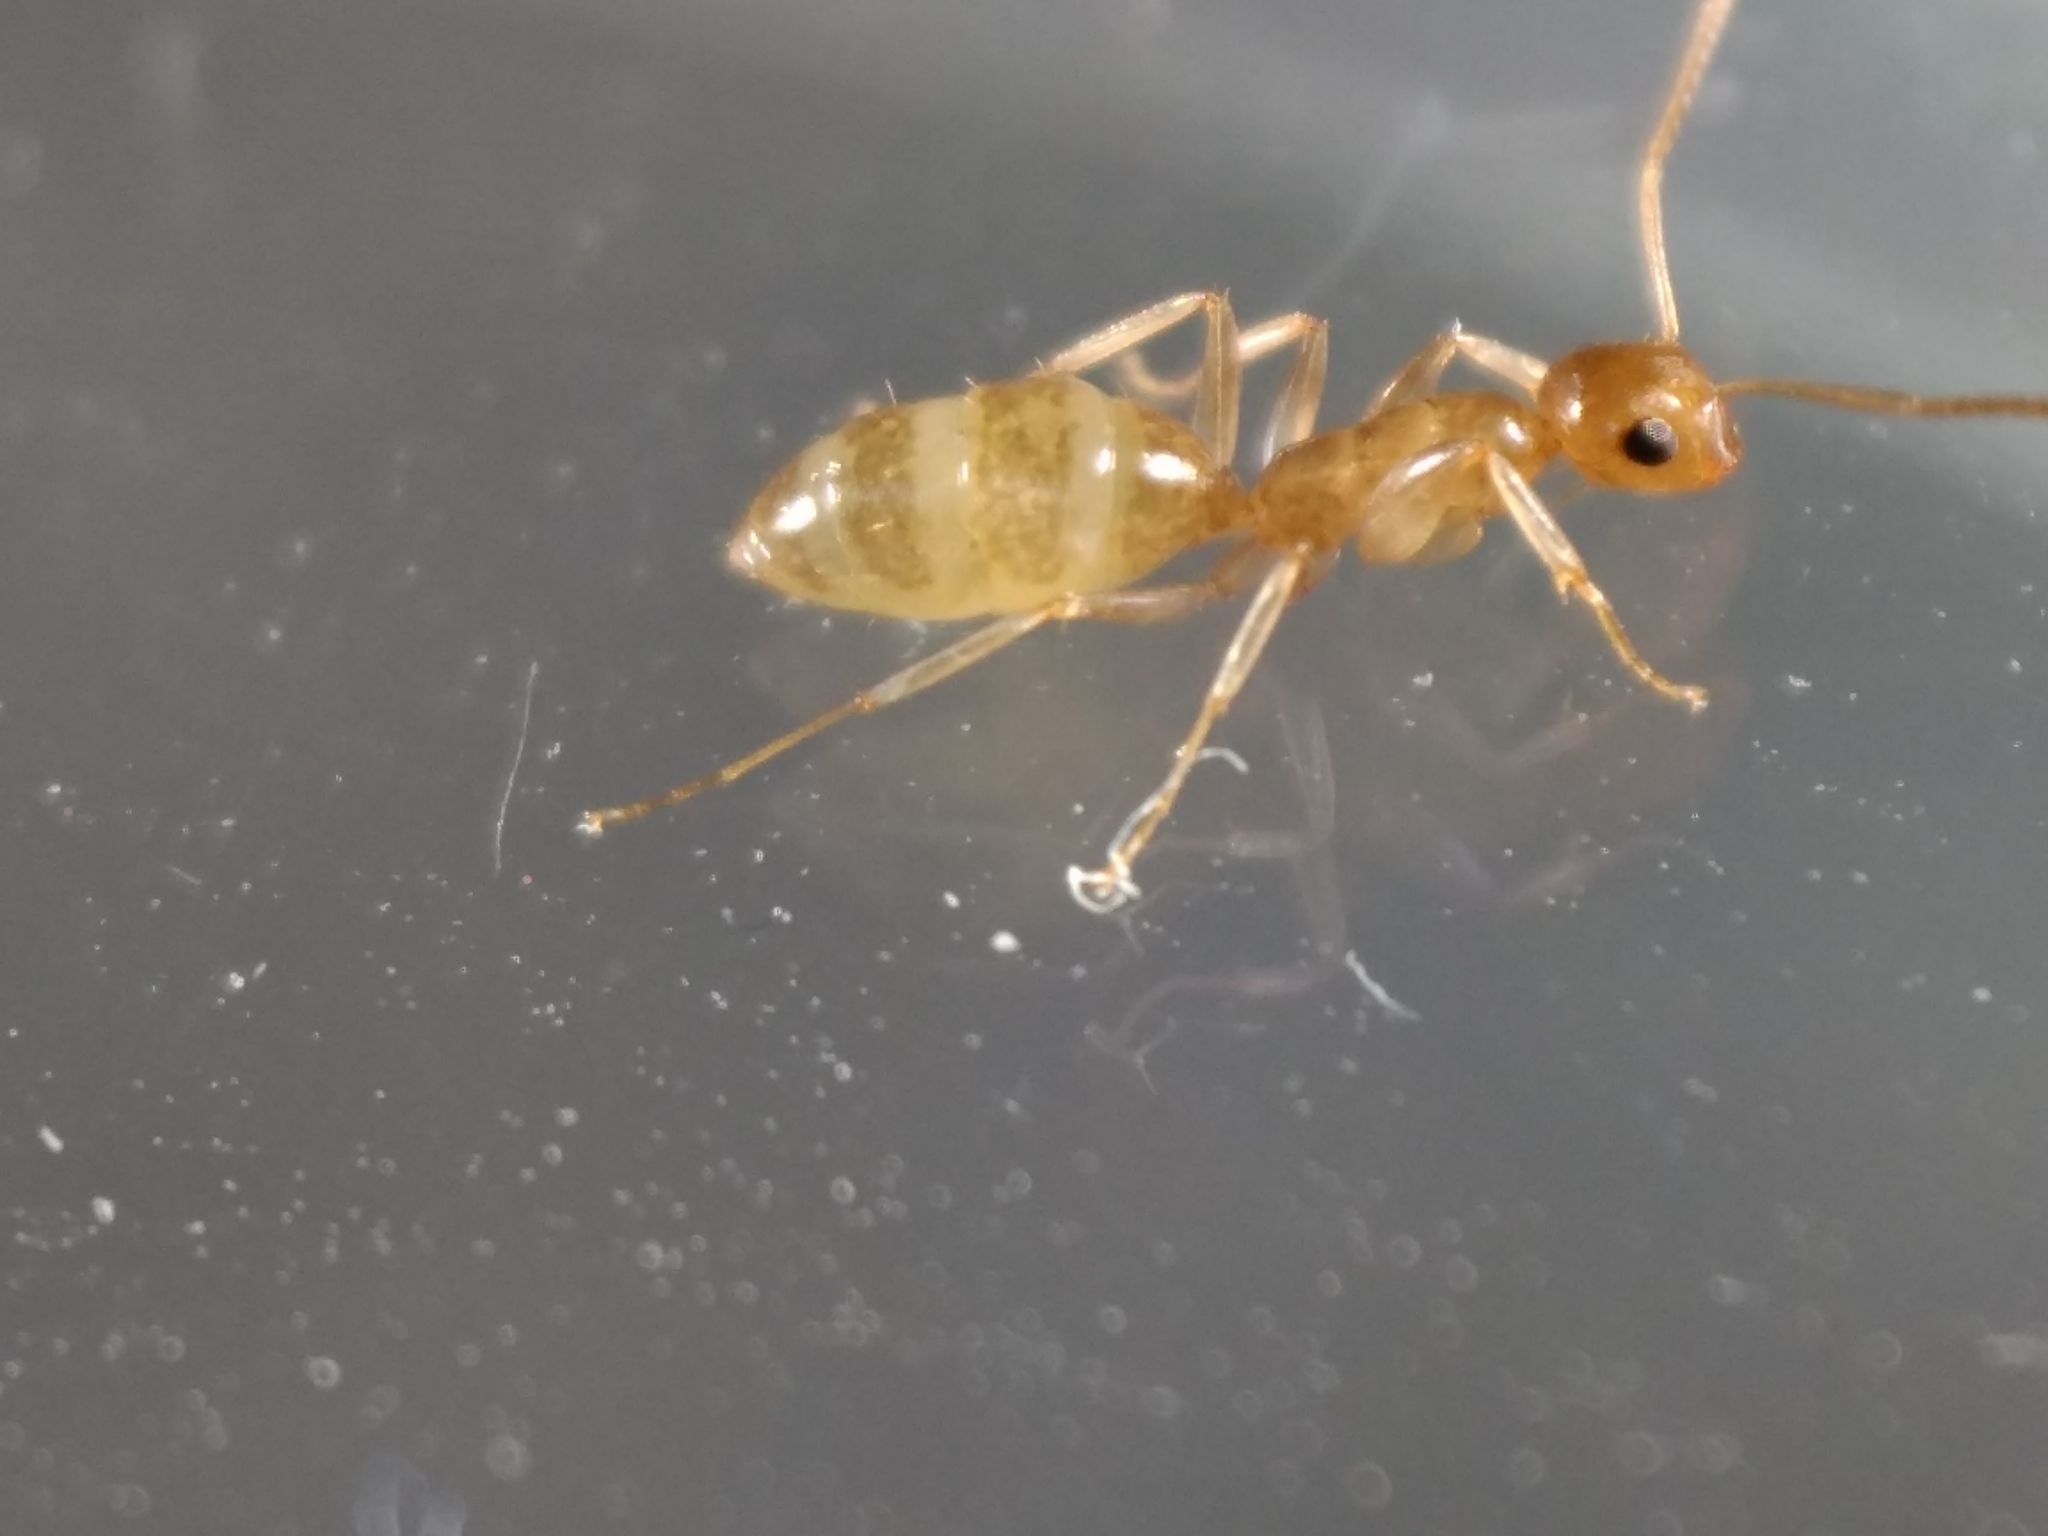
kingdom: Animalia
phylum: Arthropoda
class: Insecta
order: Hymenoptera
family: Formicidae
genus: Colobopsis
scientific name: Colobopsis
